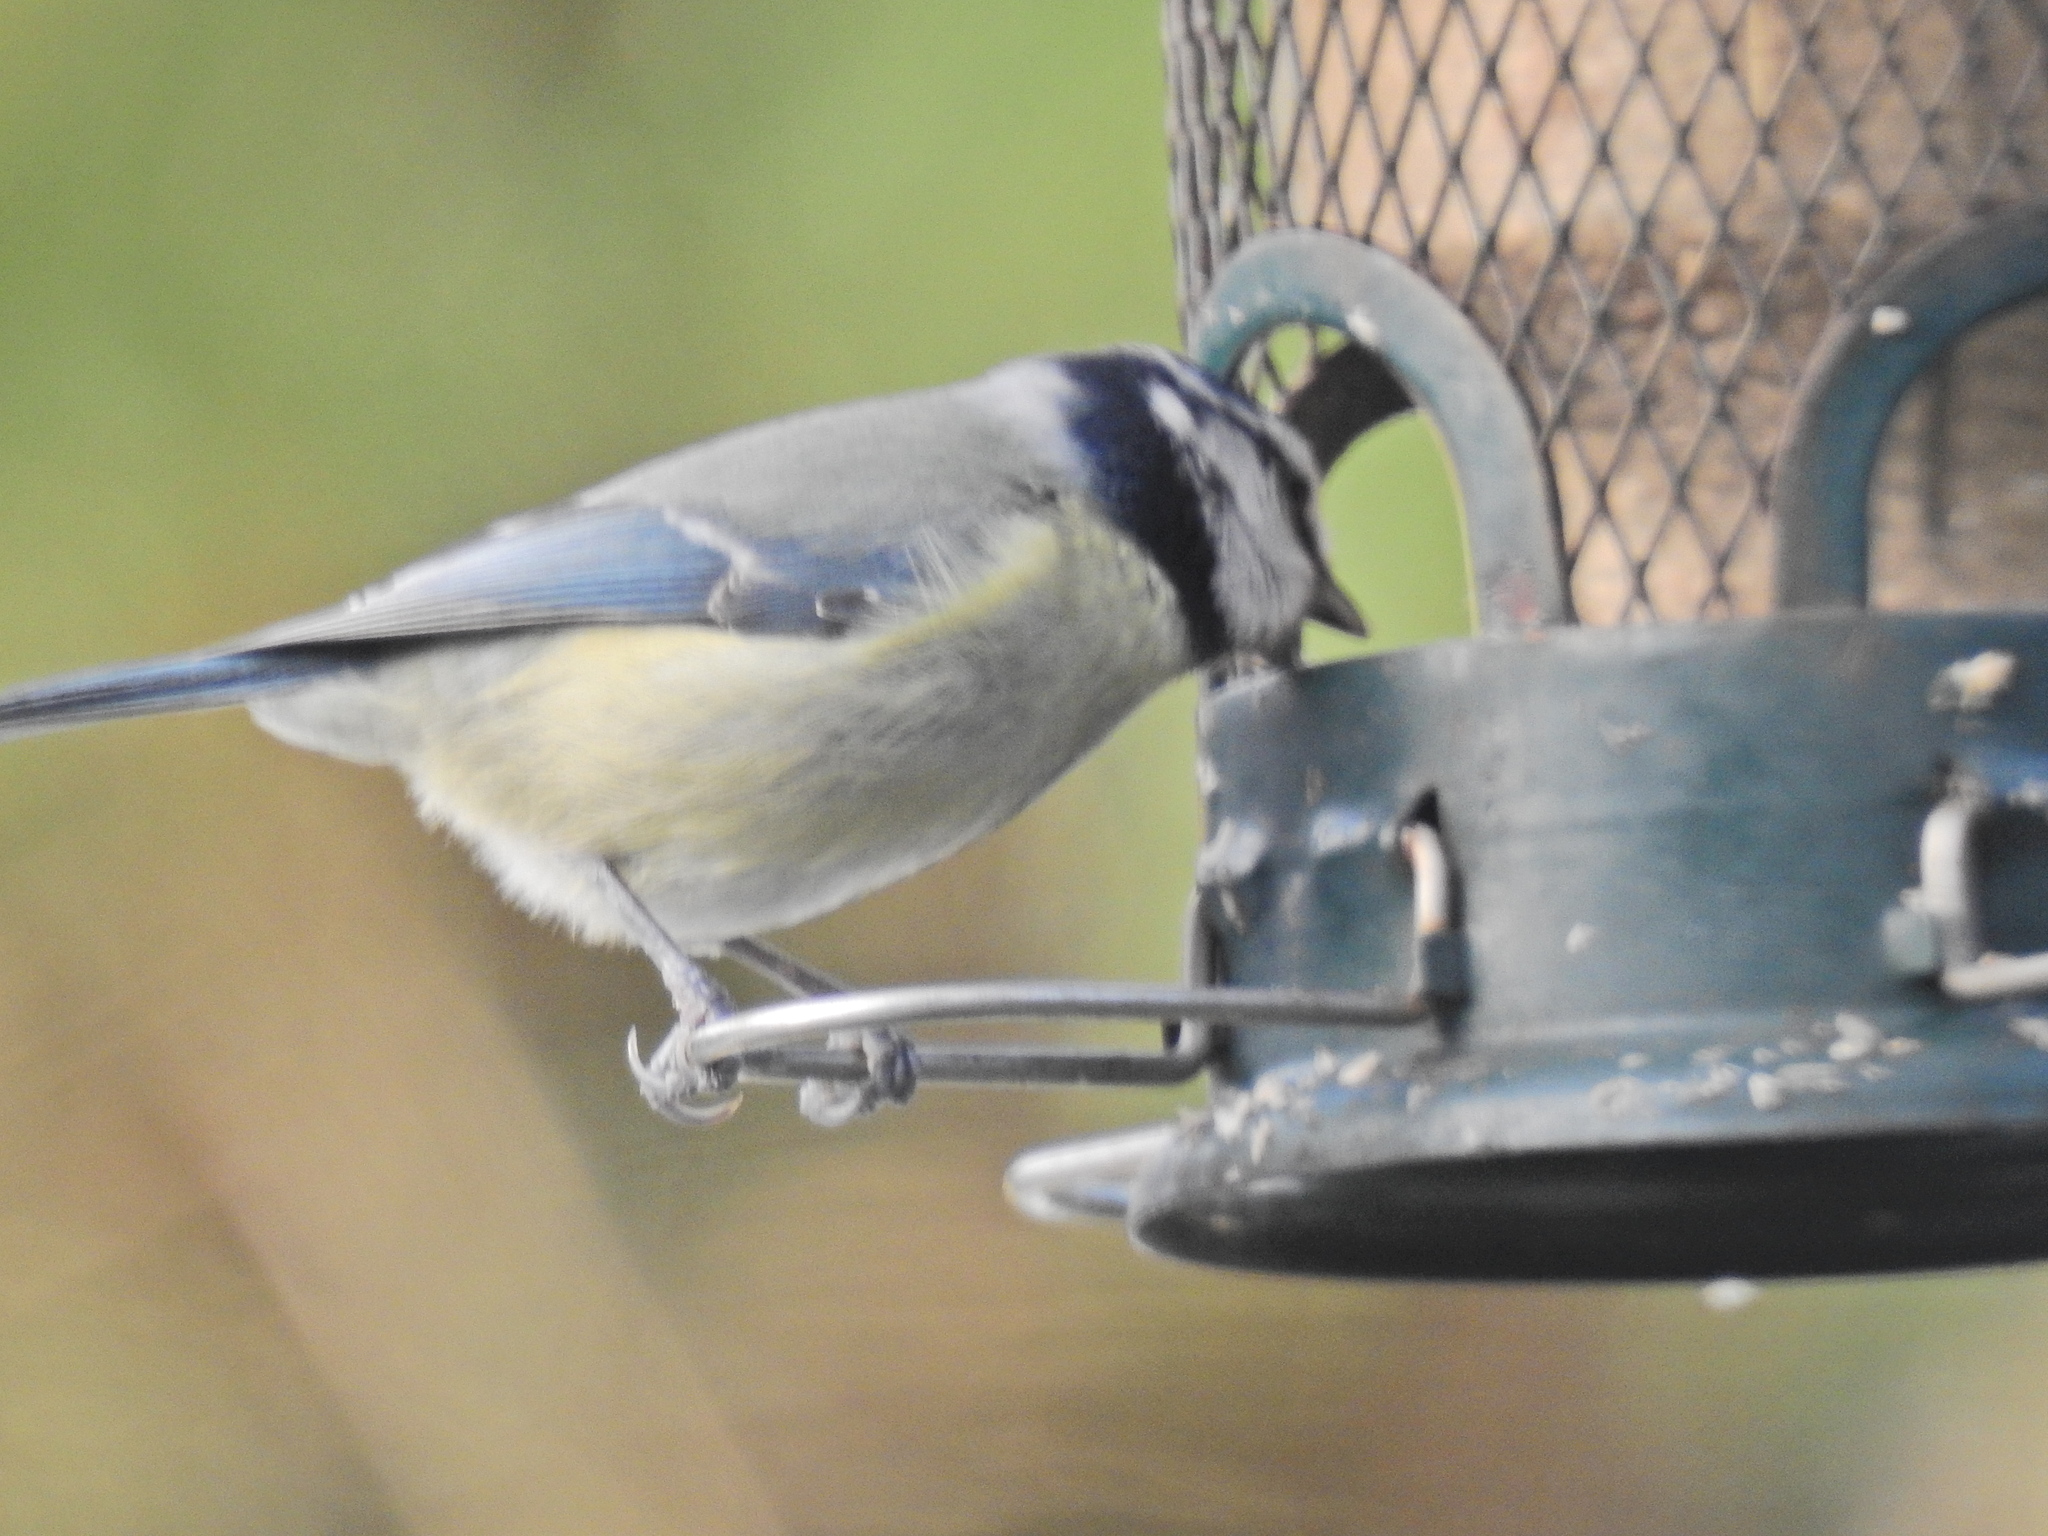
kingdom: Animalia
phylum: Chordata
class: Aves
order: Passeriformes
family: Paridae
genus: Cyanistes
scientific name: Cyanistes caeruleus
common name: Eurasian blue tit
